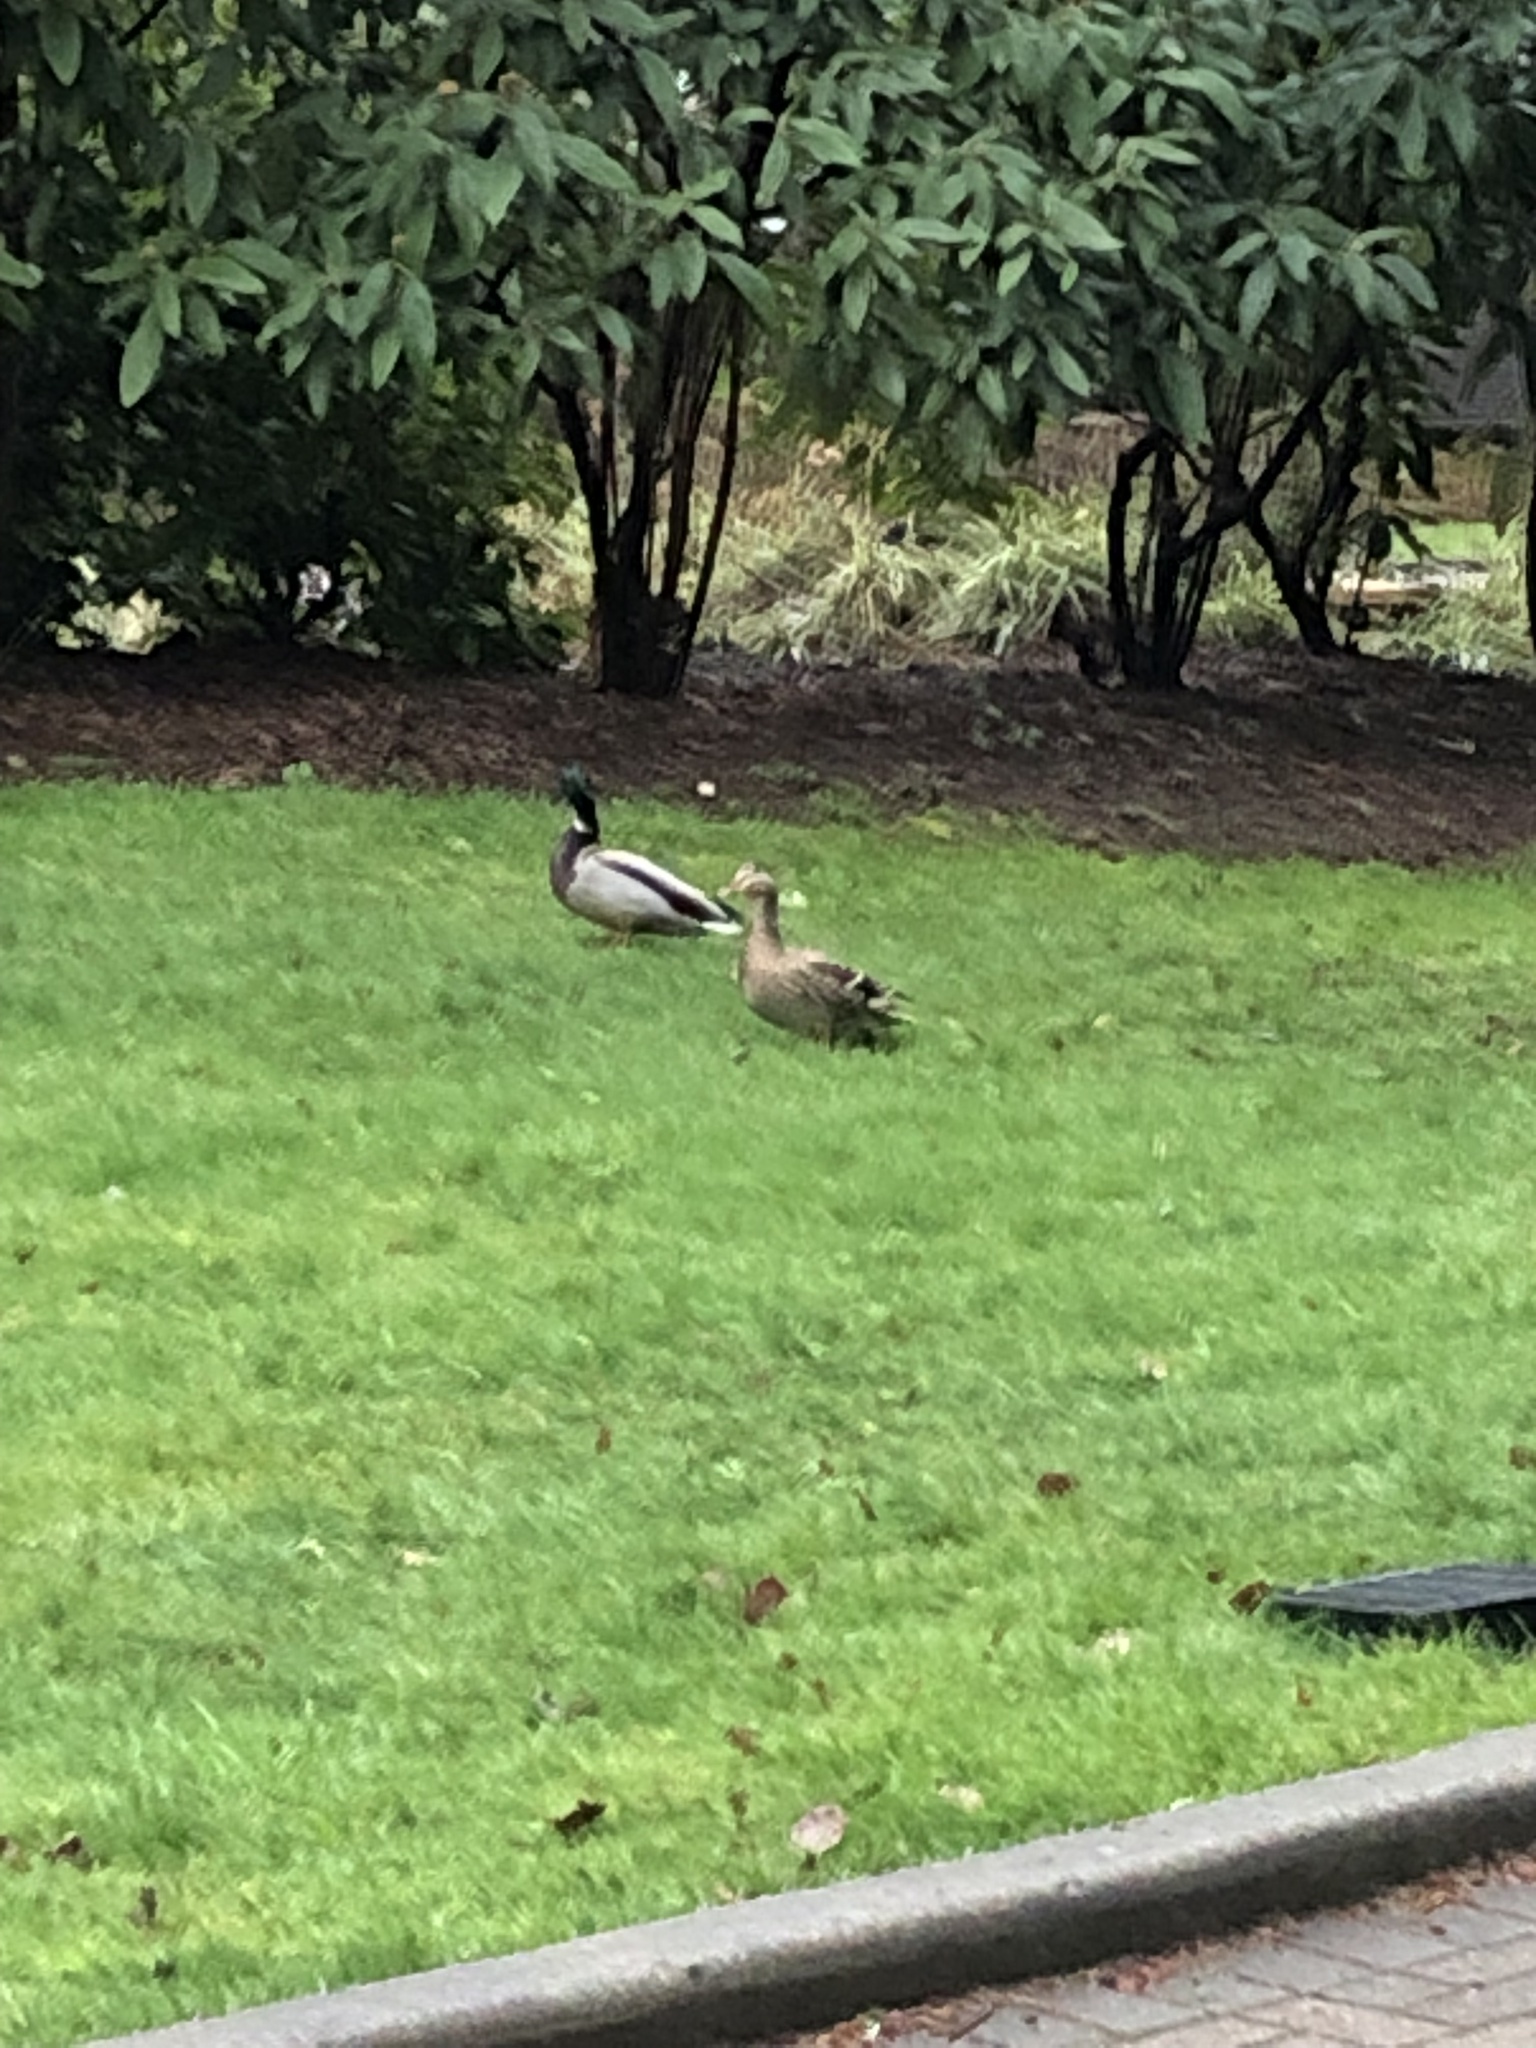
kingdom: Animalia
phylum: Chordata
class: Aves
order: Anseriformes
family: Anatidae
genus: Anas
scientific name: Anas platyrhynchos
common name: Mallard
